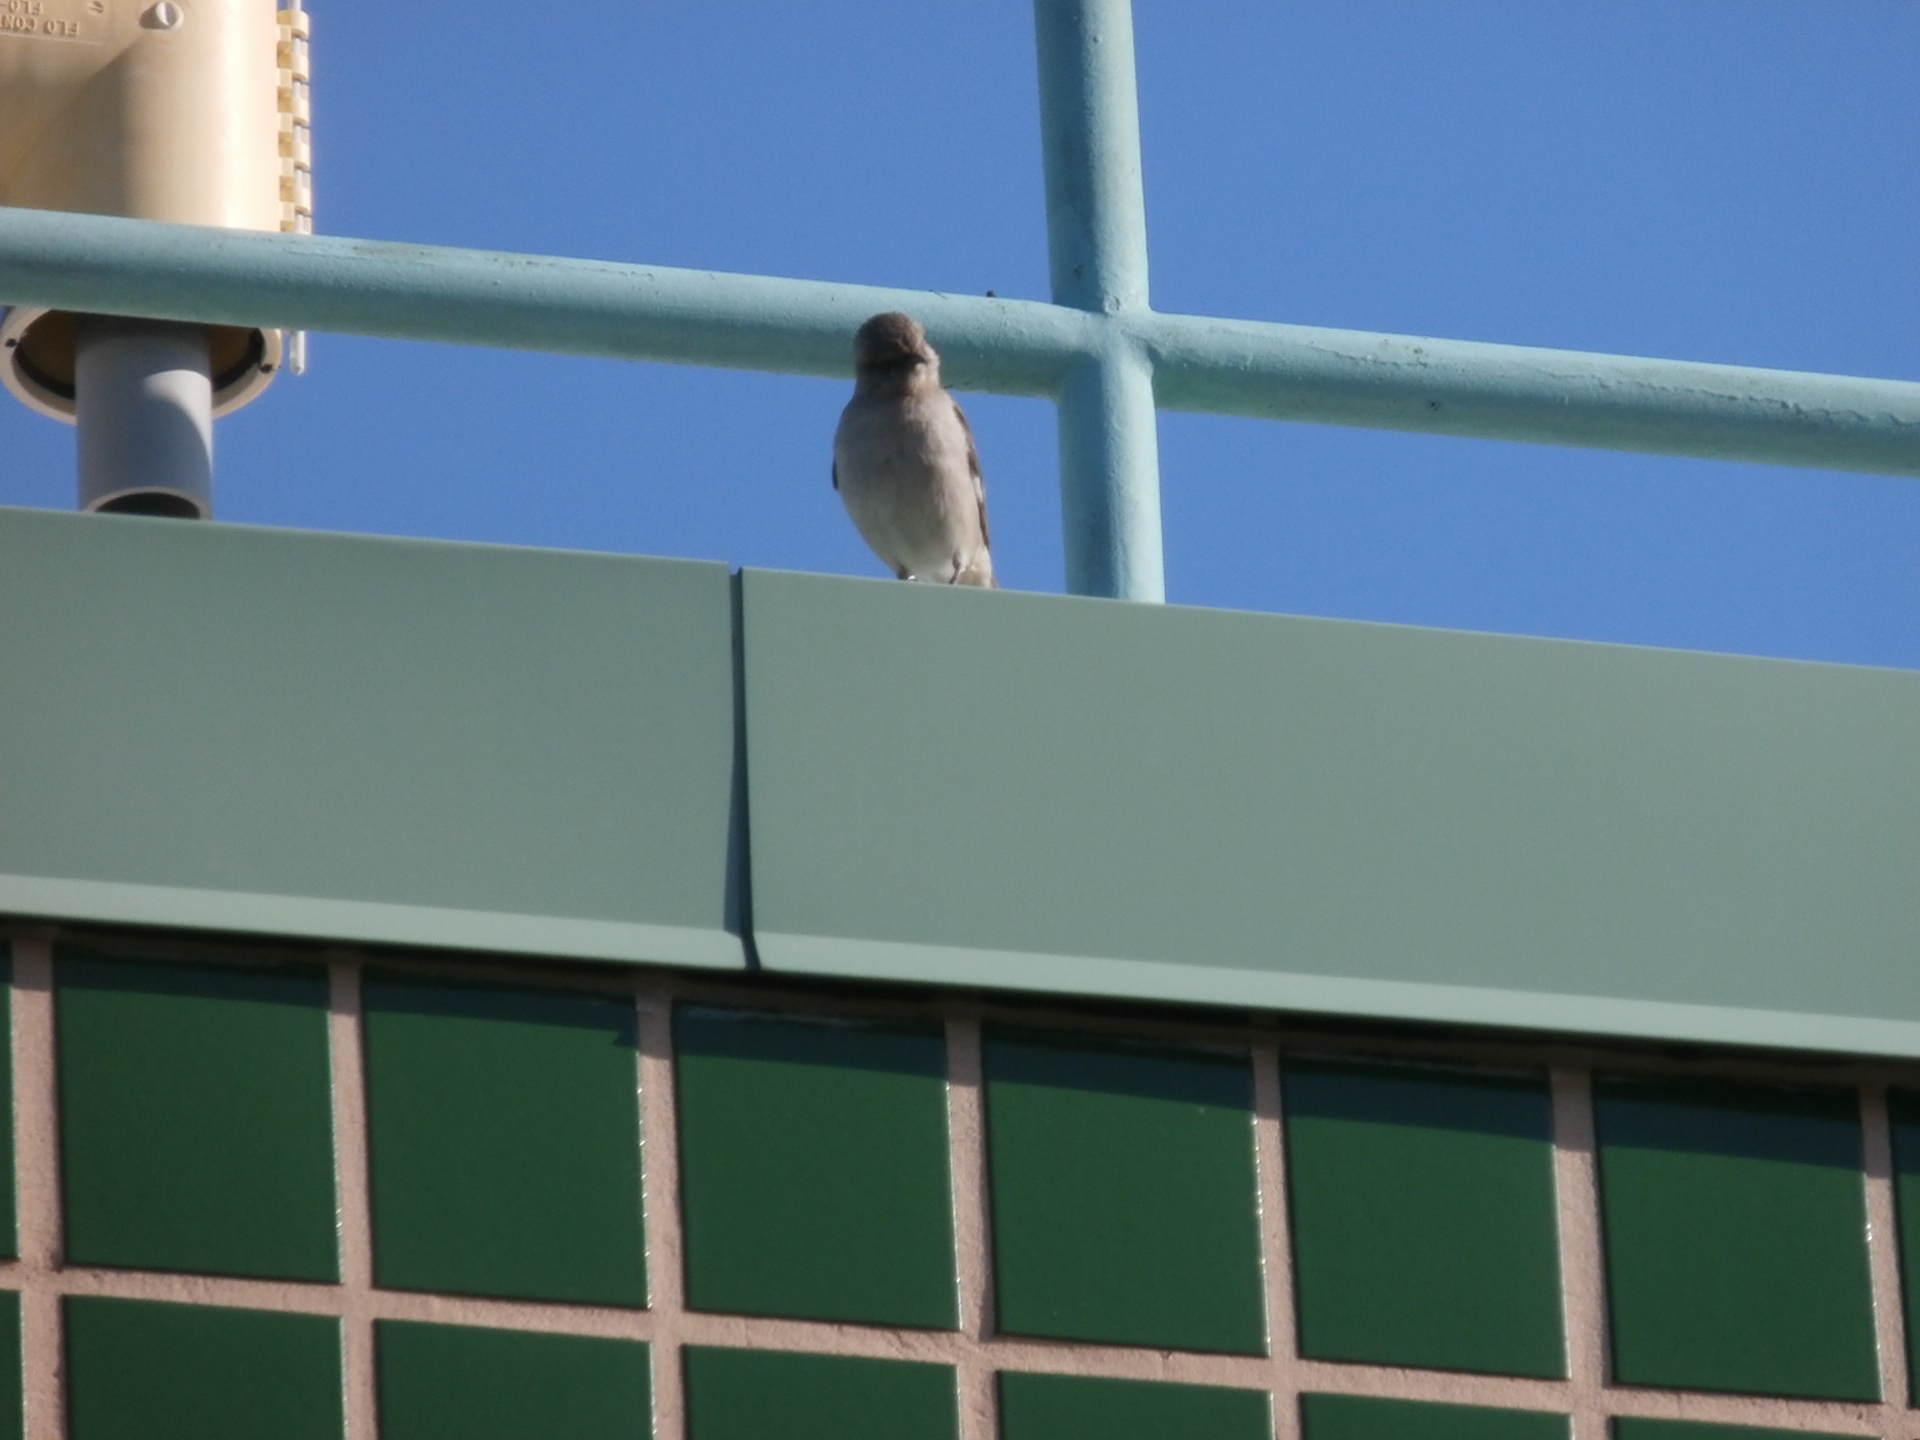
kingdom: Animalia
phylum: Chordata
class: Aves
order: Passeriformes
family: Mimidae
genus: Mimus
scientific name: Mimus polyglottos
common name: Northern mockingbird
